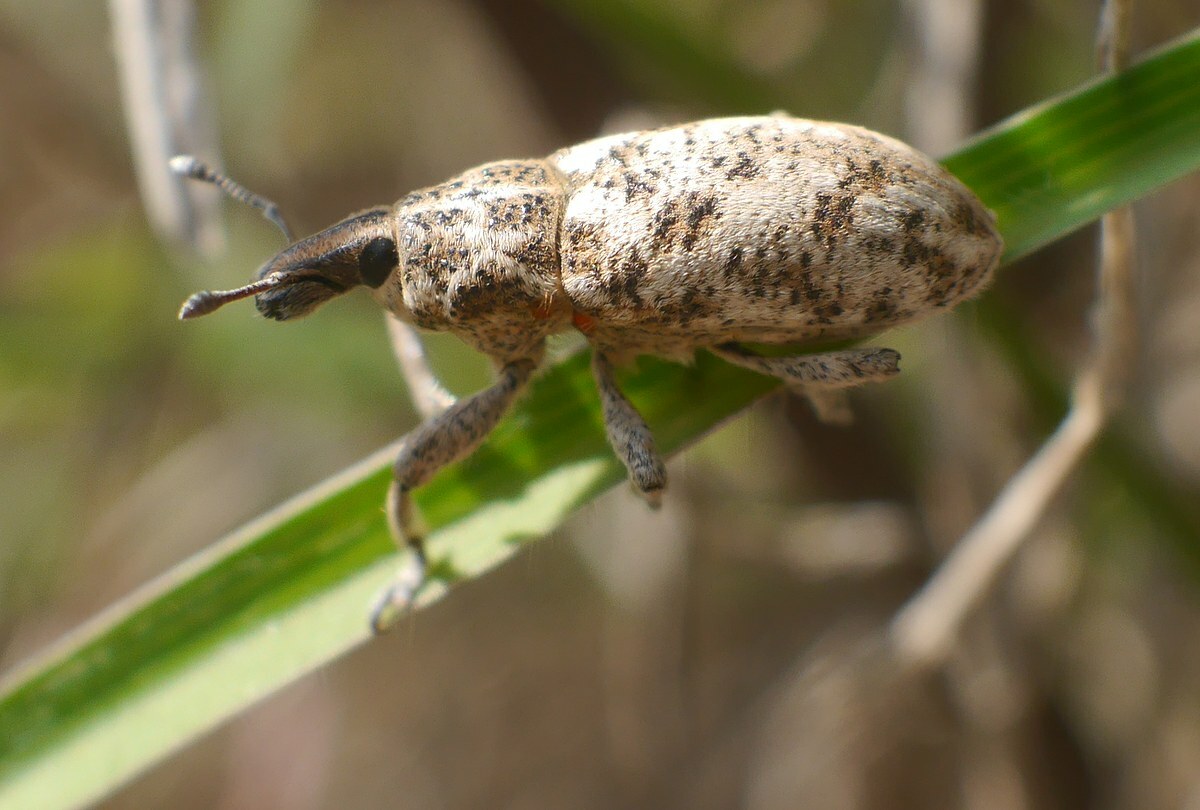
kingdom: Animalia
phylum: Arthropoda
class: Insecta
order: Coleoptera
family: Curculionidae
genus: Cyphocleonus
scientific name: Cyphocleonus dealbatus
